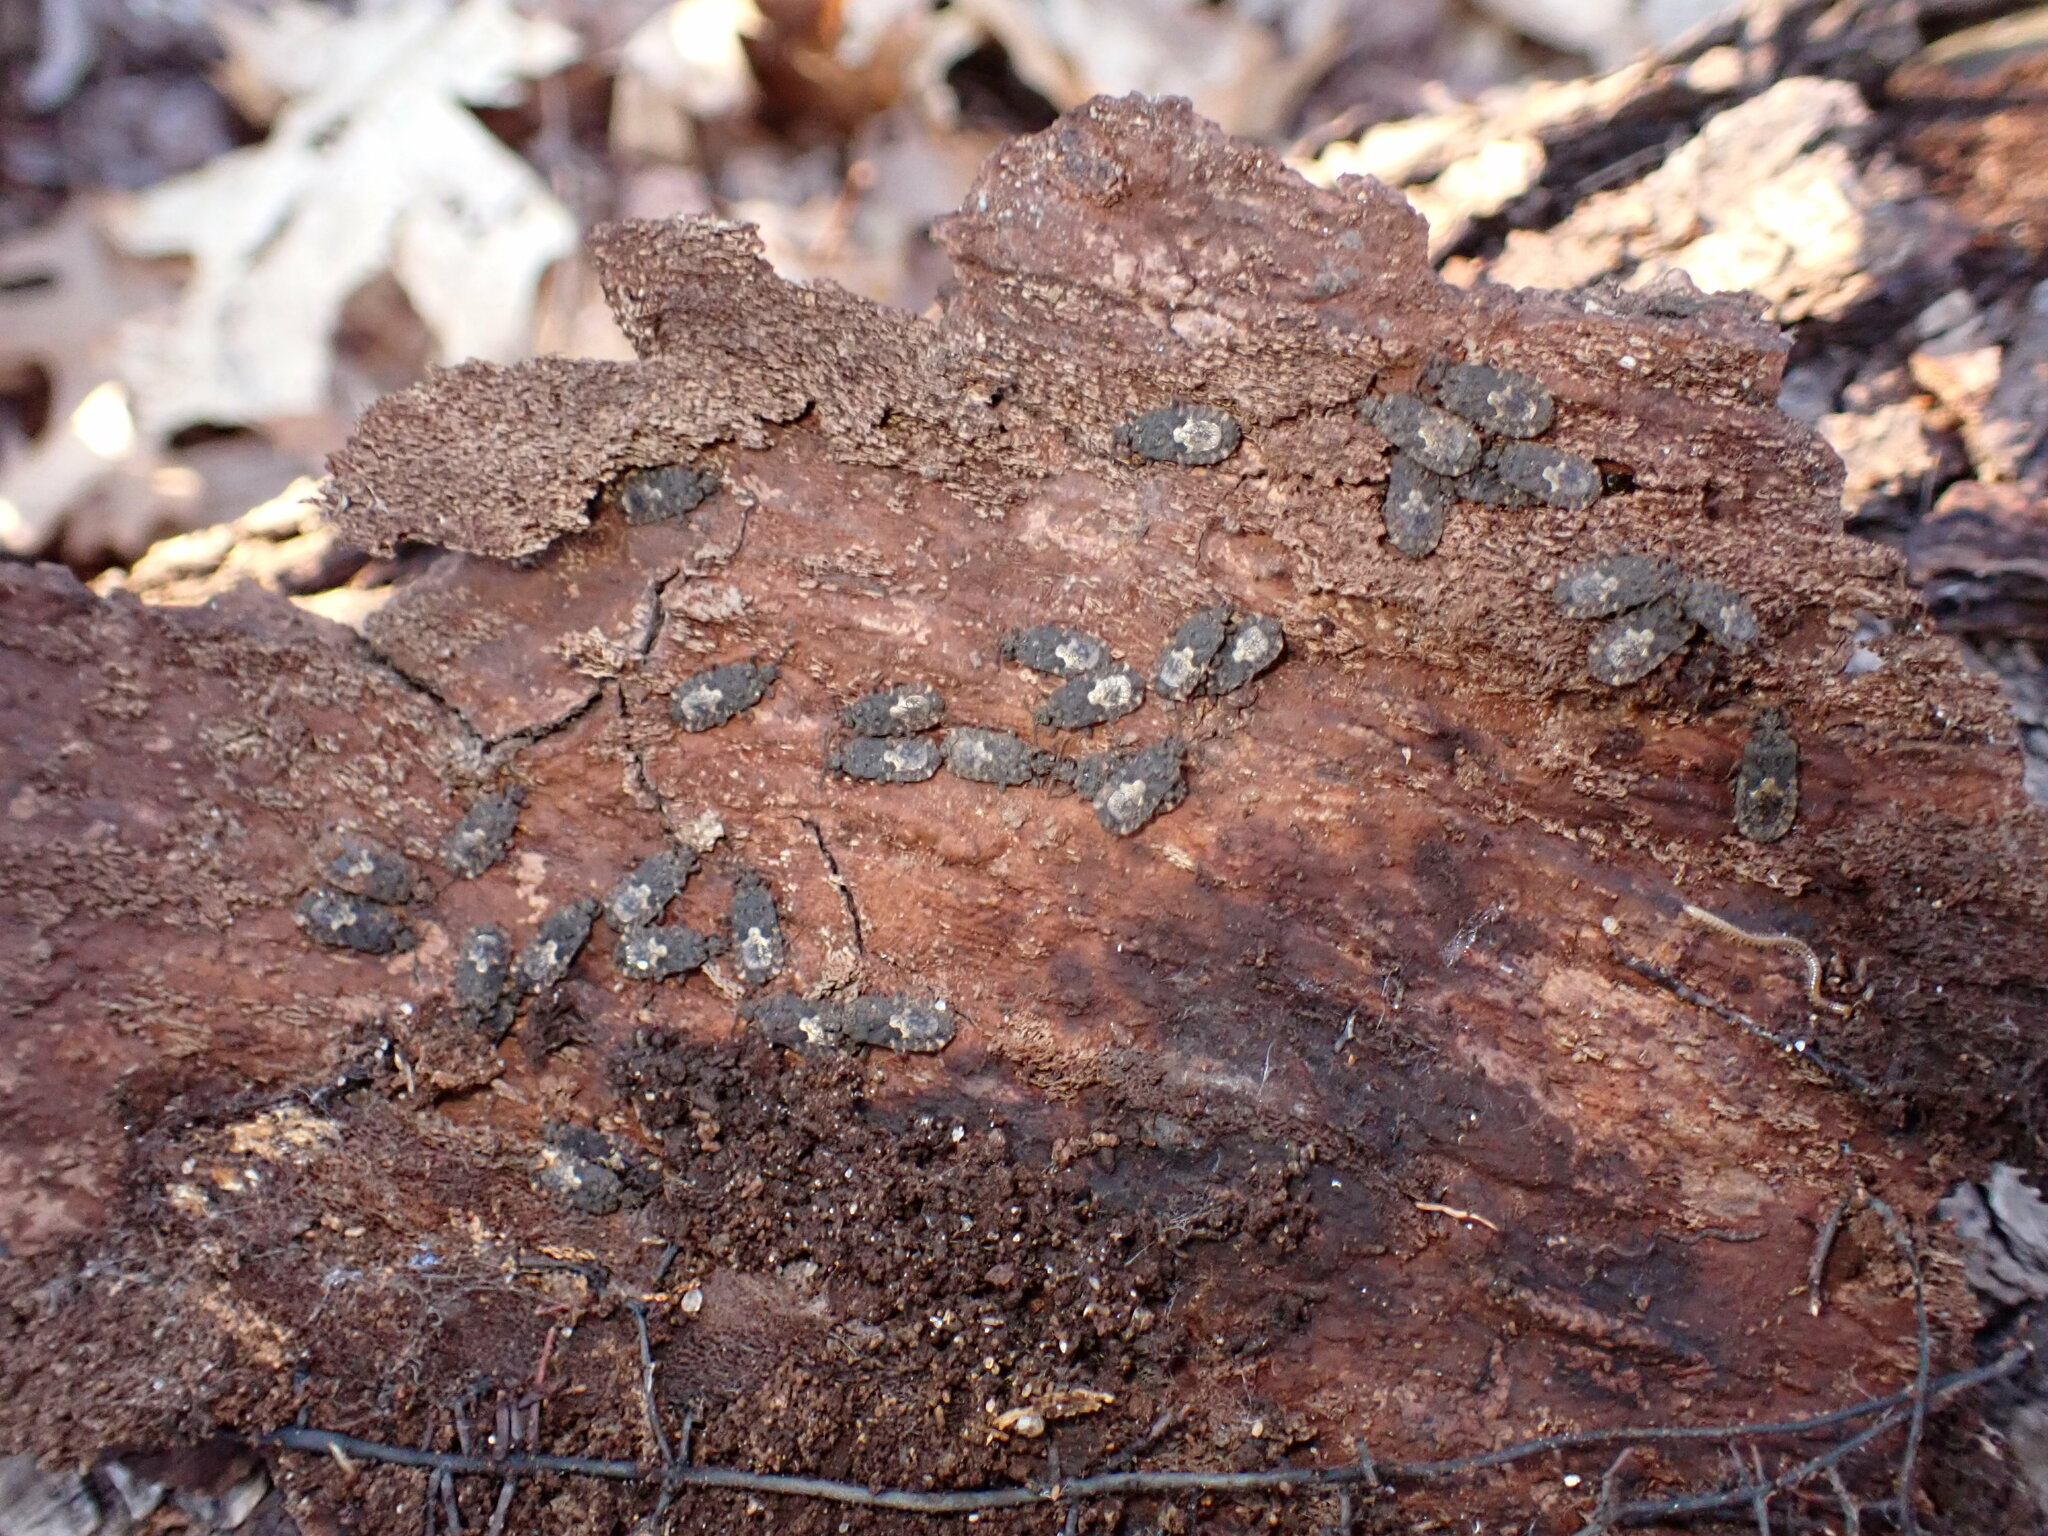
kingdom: Animalia
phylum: Arthropoda
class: Insecta
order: Hemiptera
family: Aradidae
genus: Mezira
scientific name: Mezira
